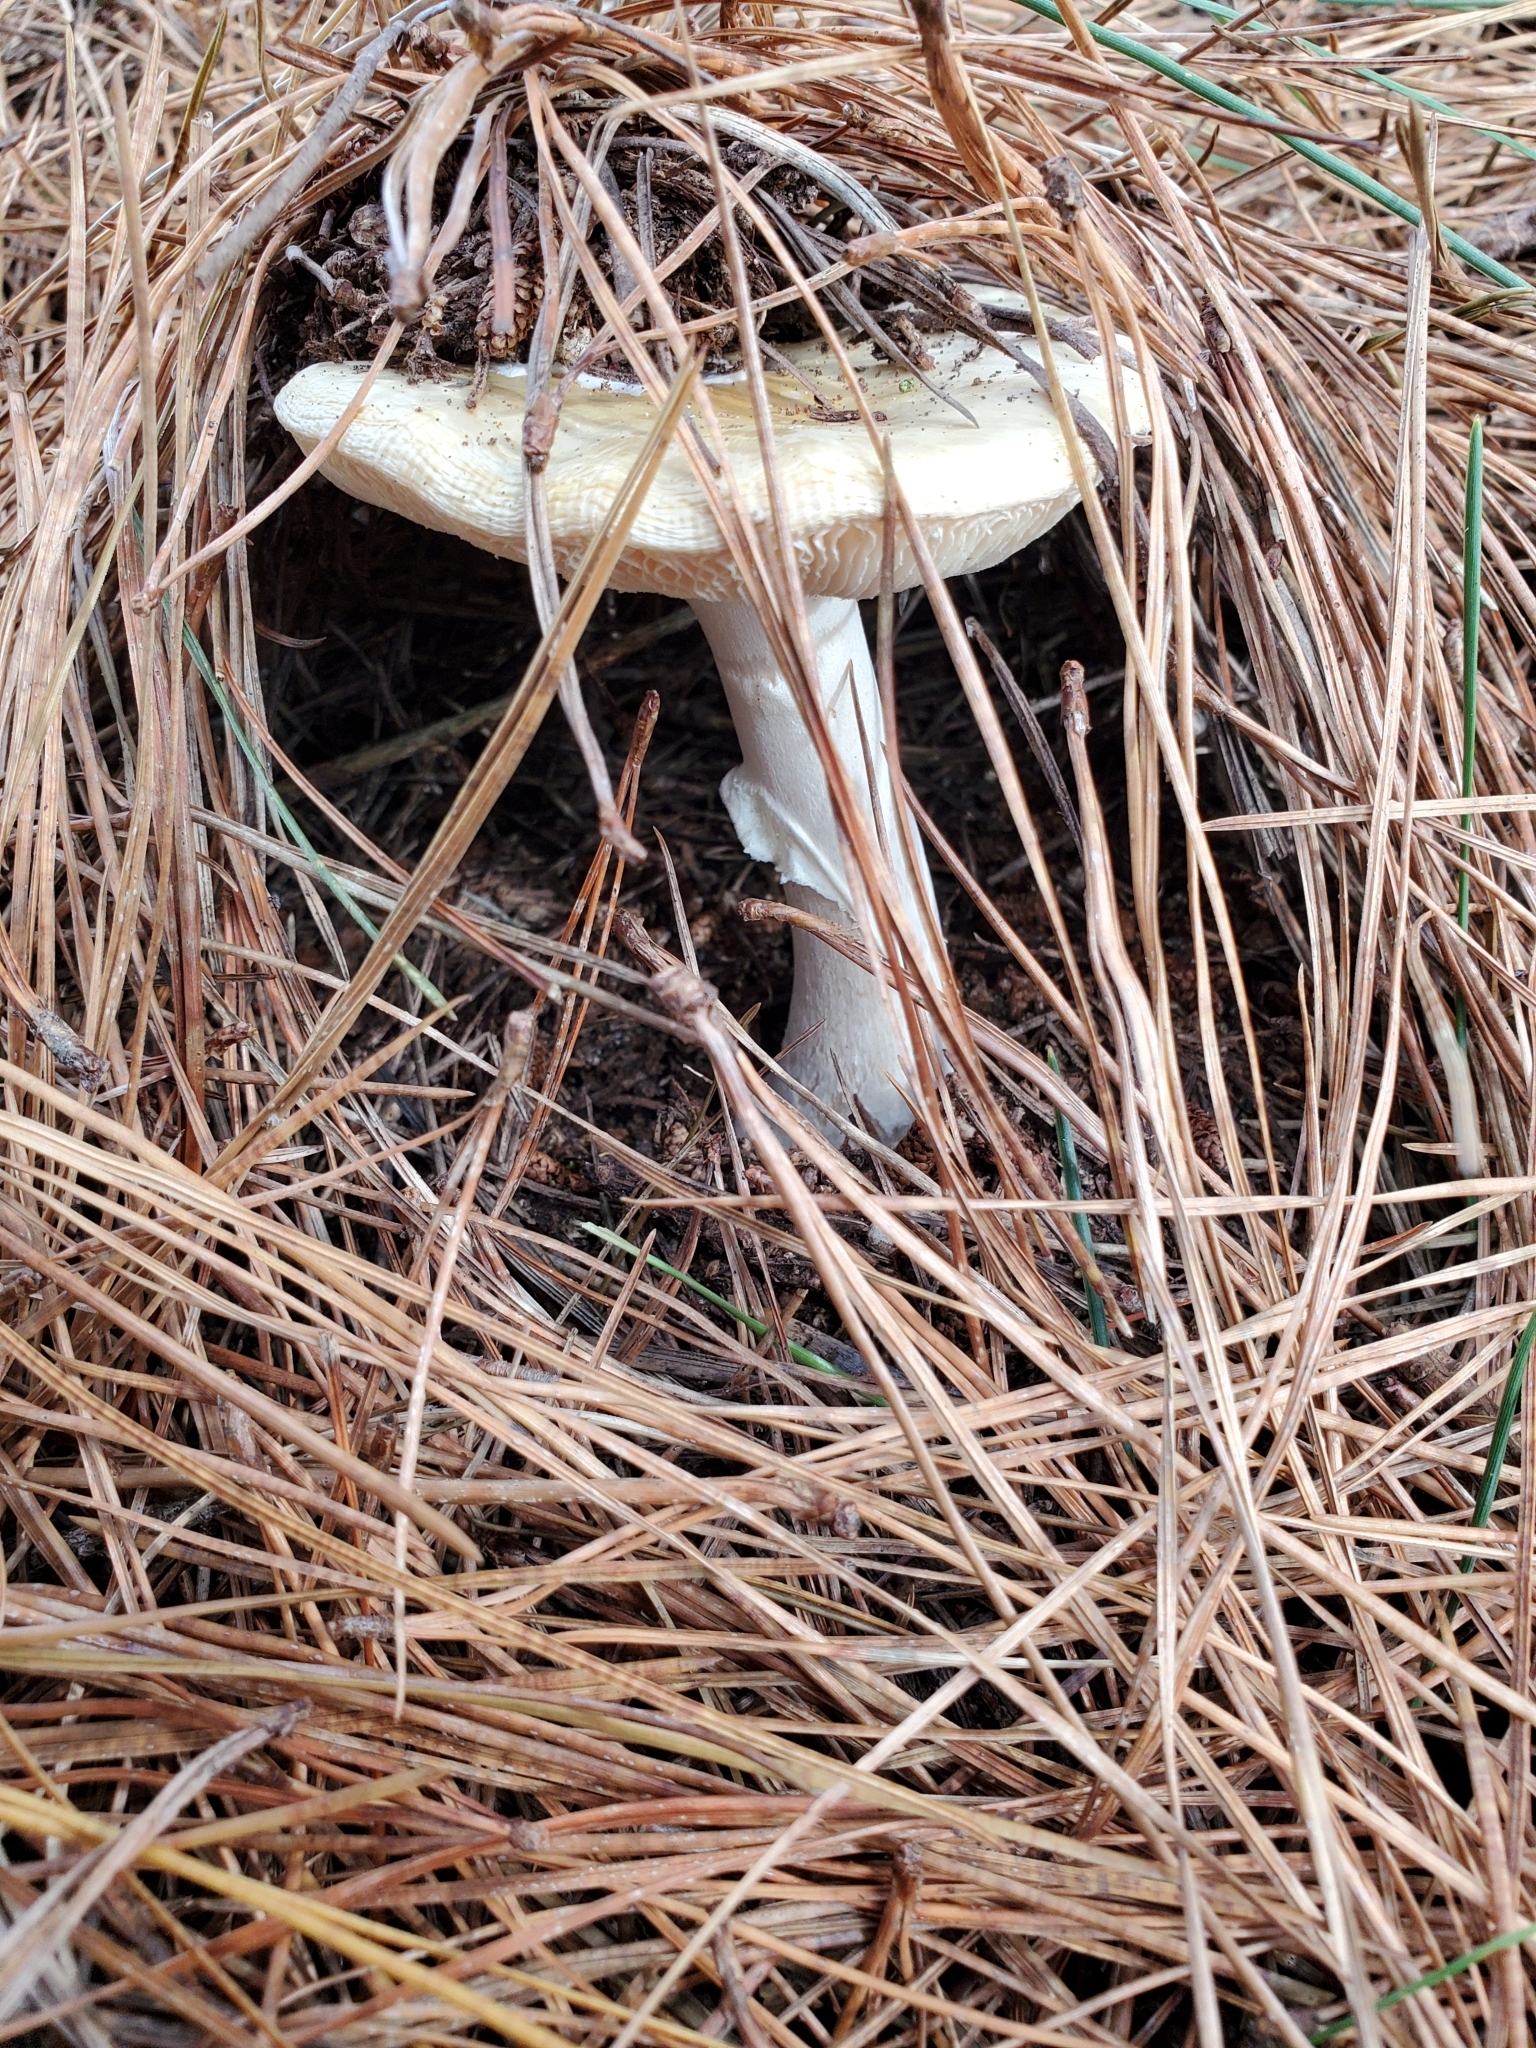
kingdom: Fungi
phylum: Basidiomycota
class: Agaricomycetes
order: Agaricales
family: Amanitaceae
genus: Amanita
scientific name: Amanita gemmata
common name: Jewelled amanita
